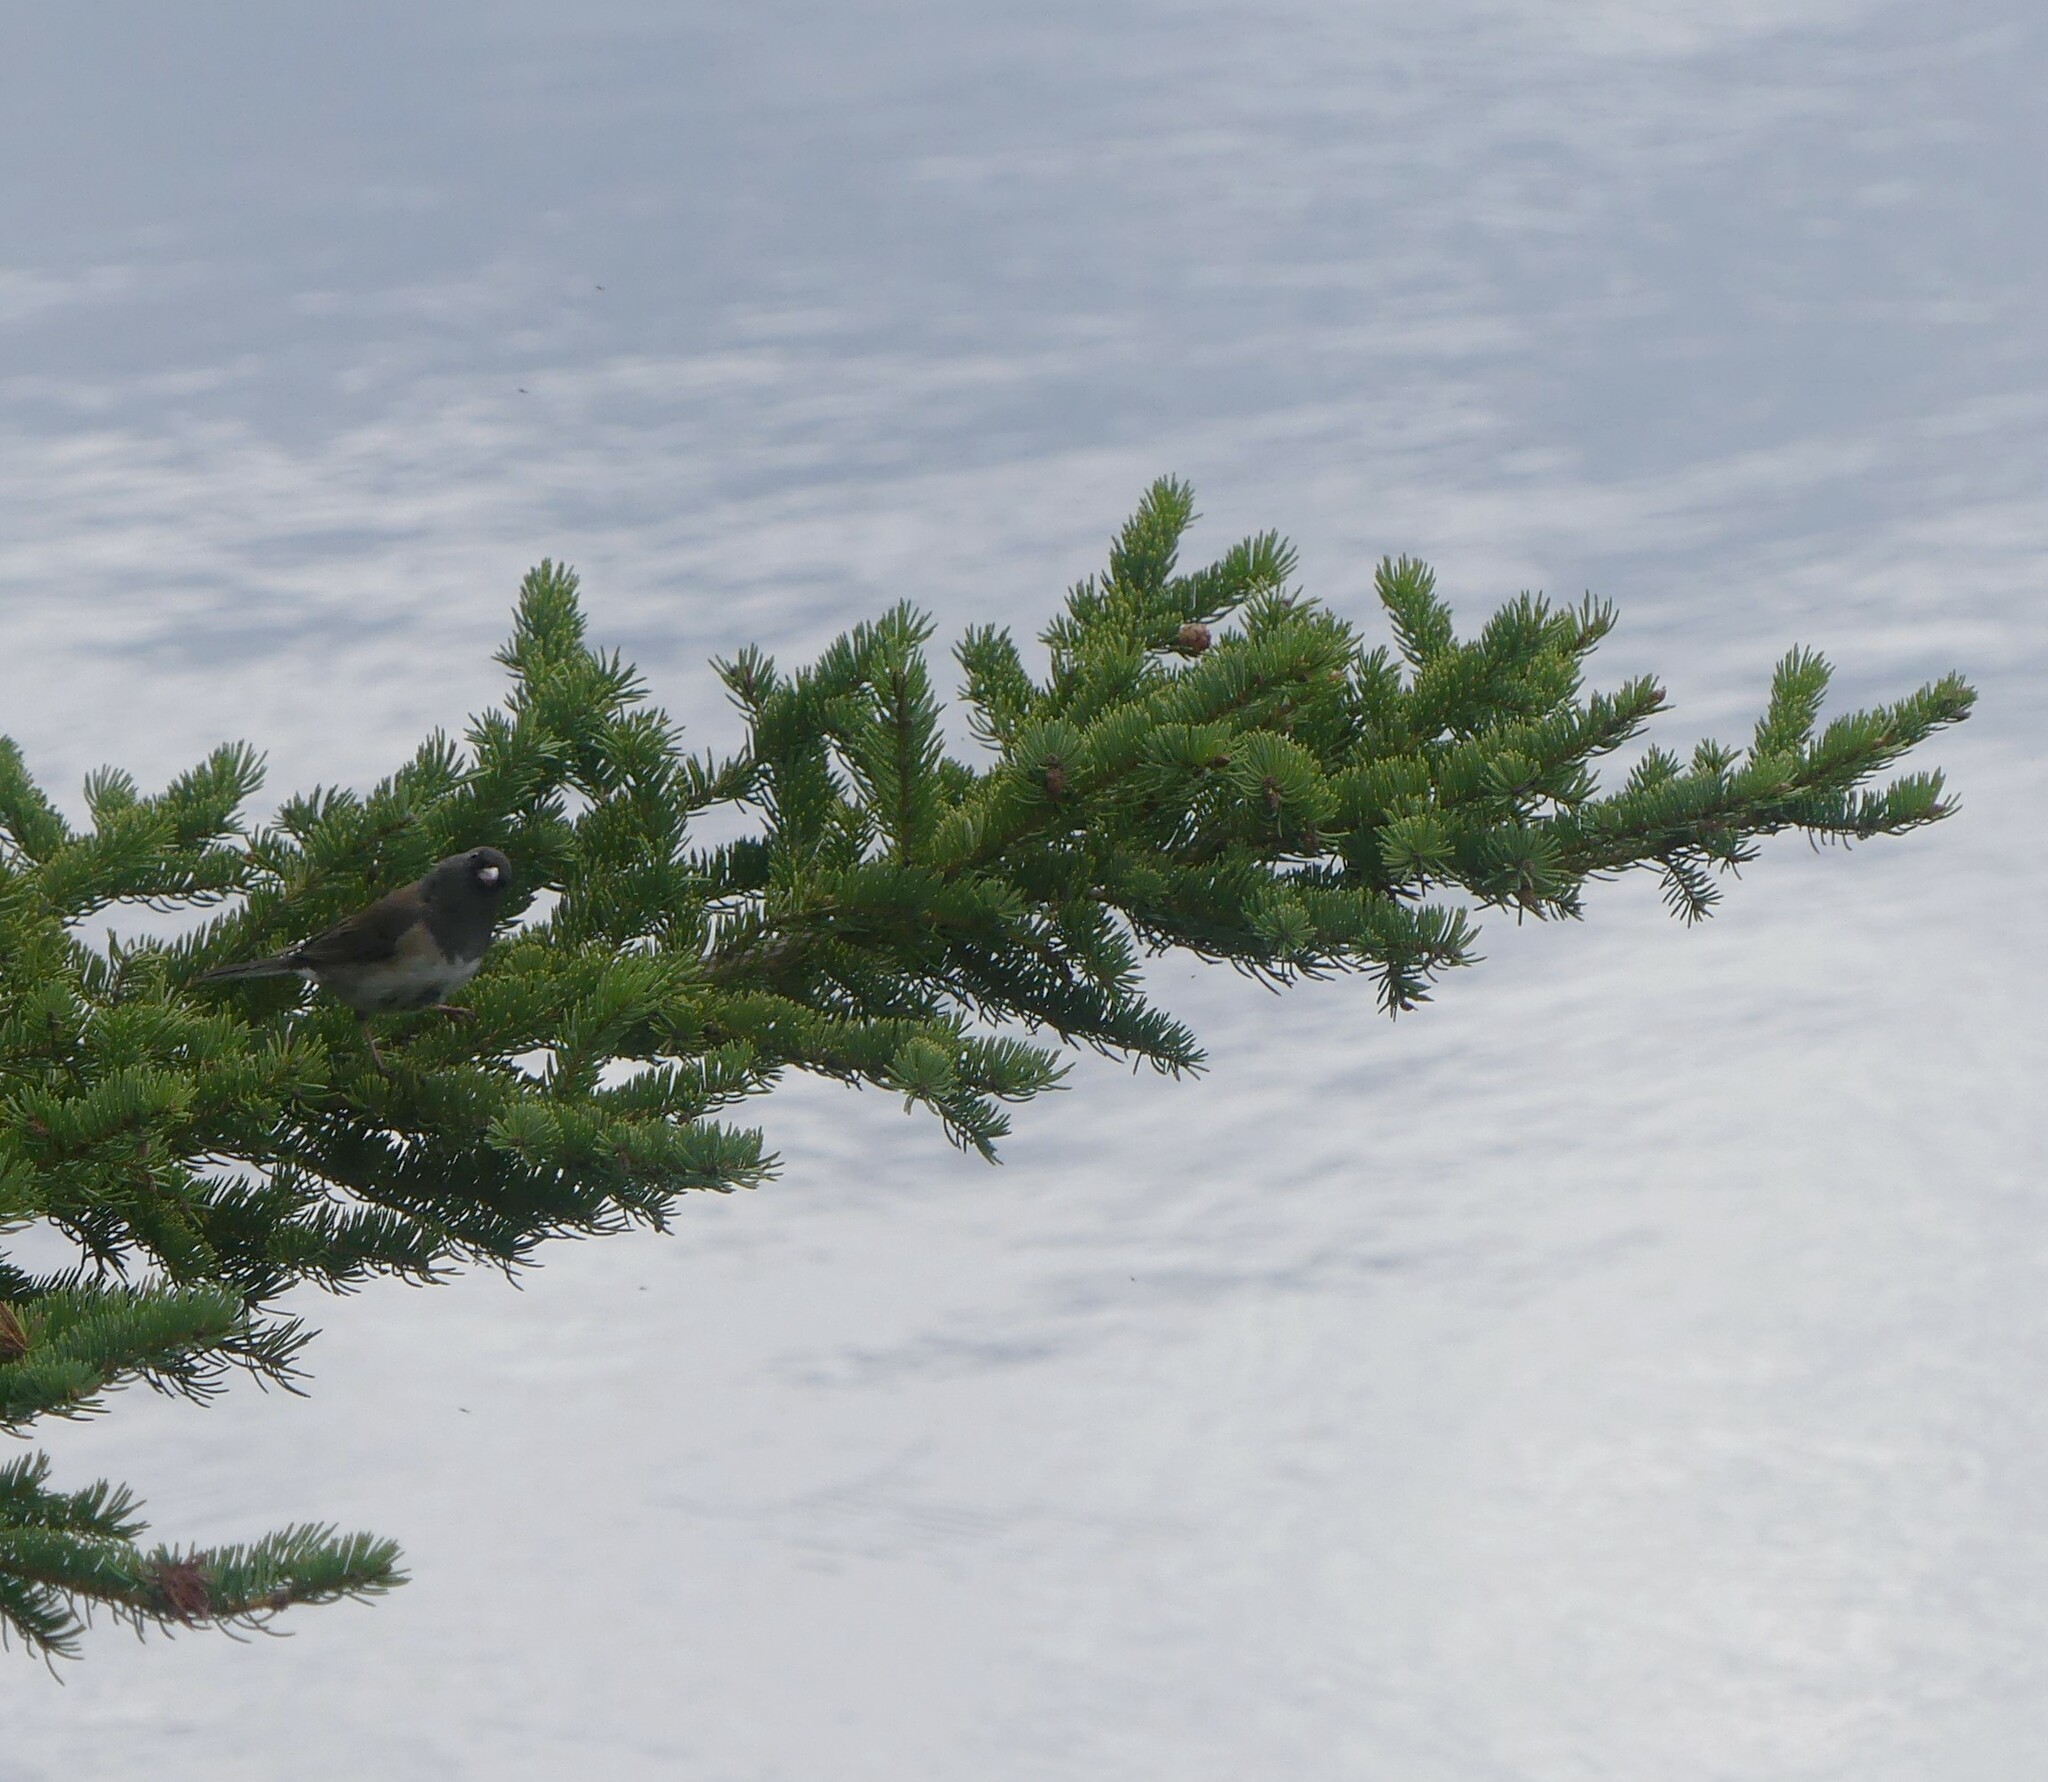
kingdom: Animalia
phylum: Chordata
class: Aves
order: Passeriformes
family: Passerellidae
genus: Junco
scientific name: Junco hyemalis
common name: Dark-eyed junco
